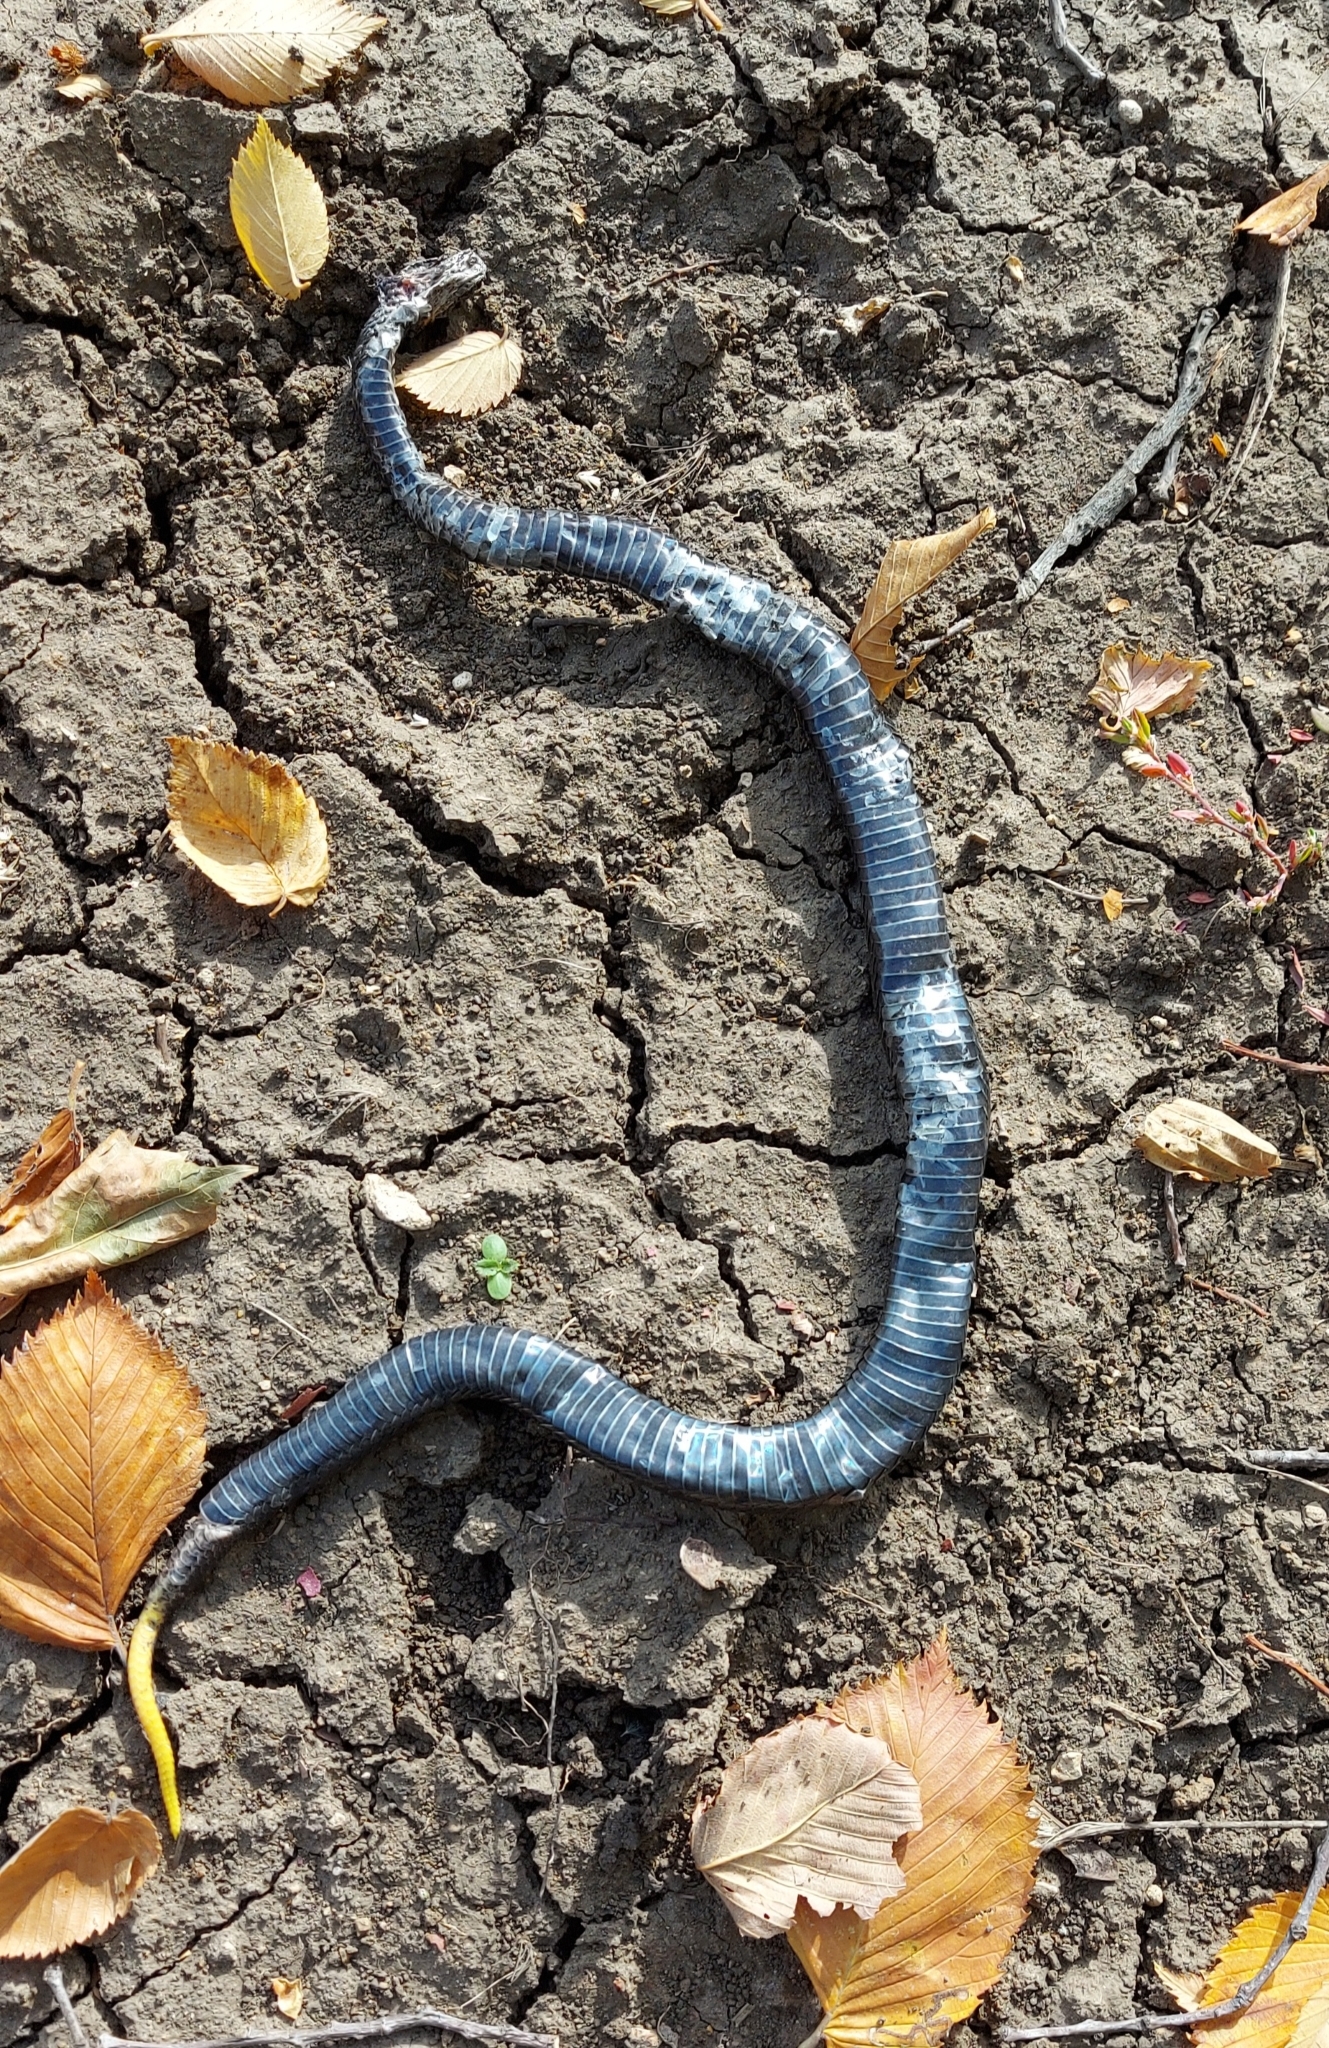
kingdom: Animalia
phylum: Chordata
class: Squamata
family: Viperidae
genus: Vipera
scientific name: Vipera berus
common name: Adder
